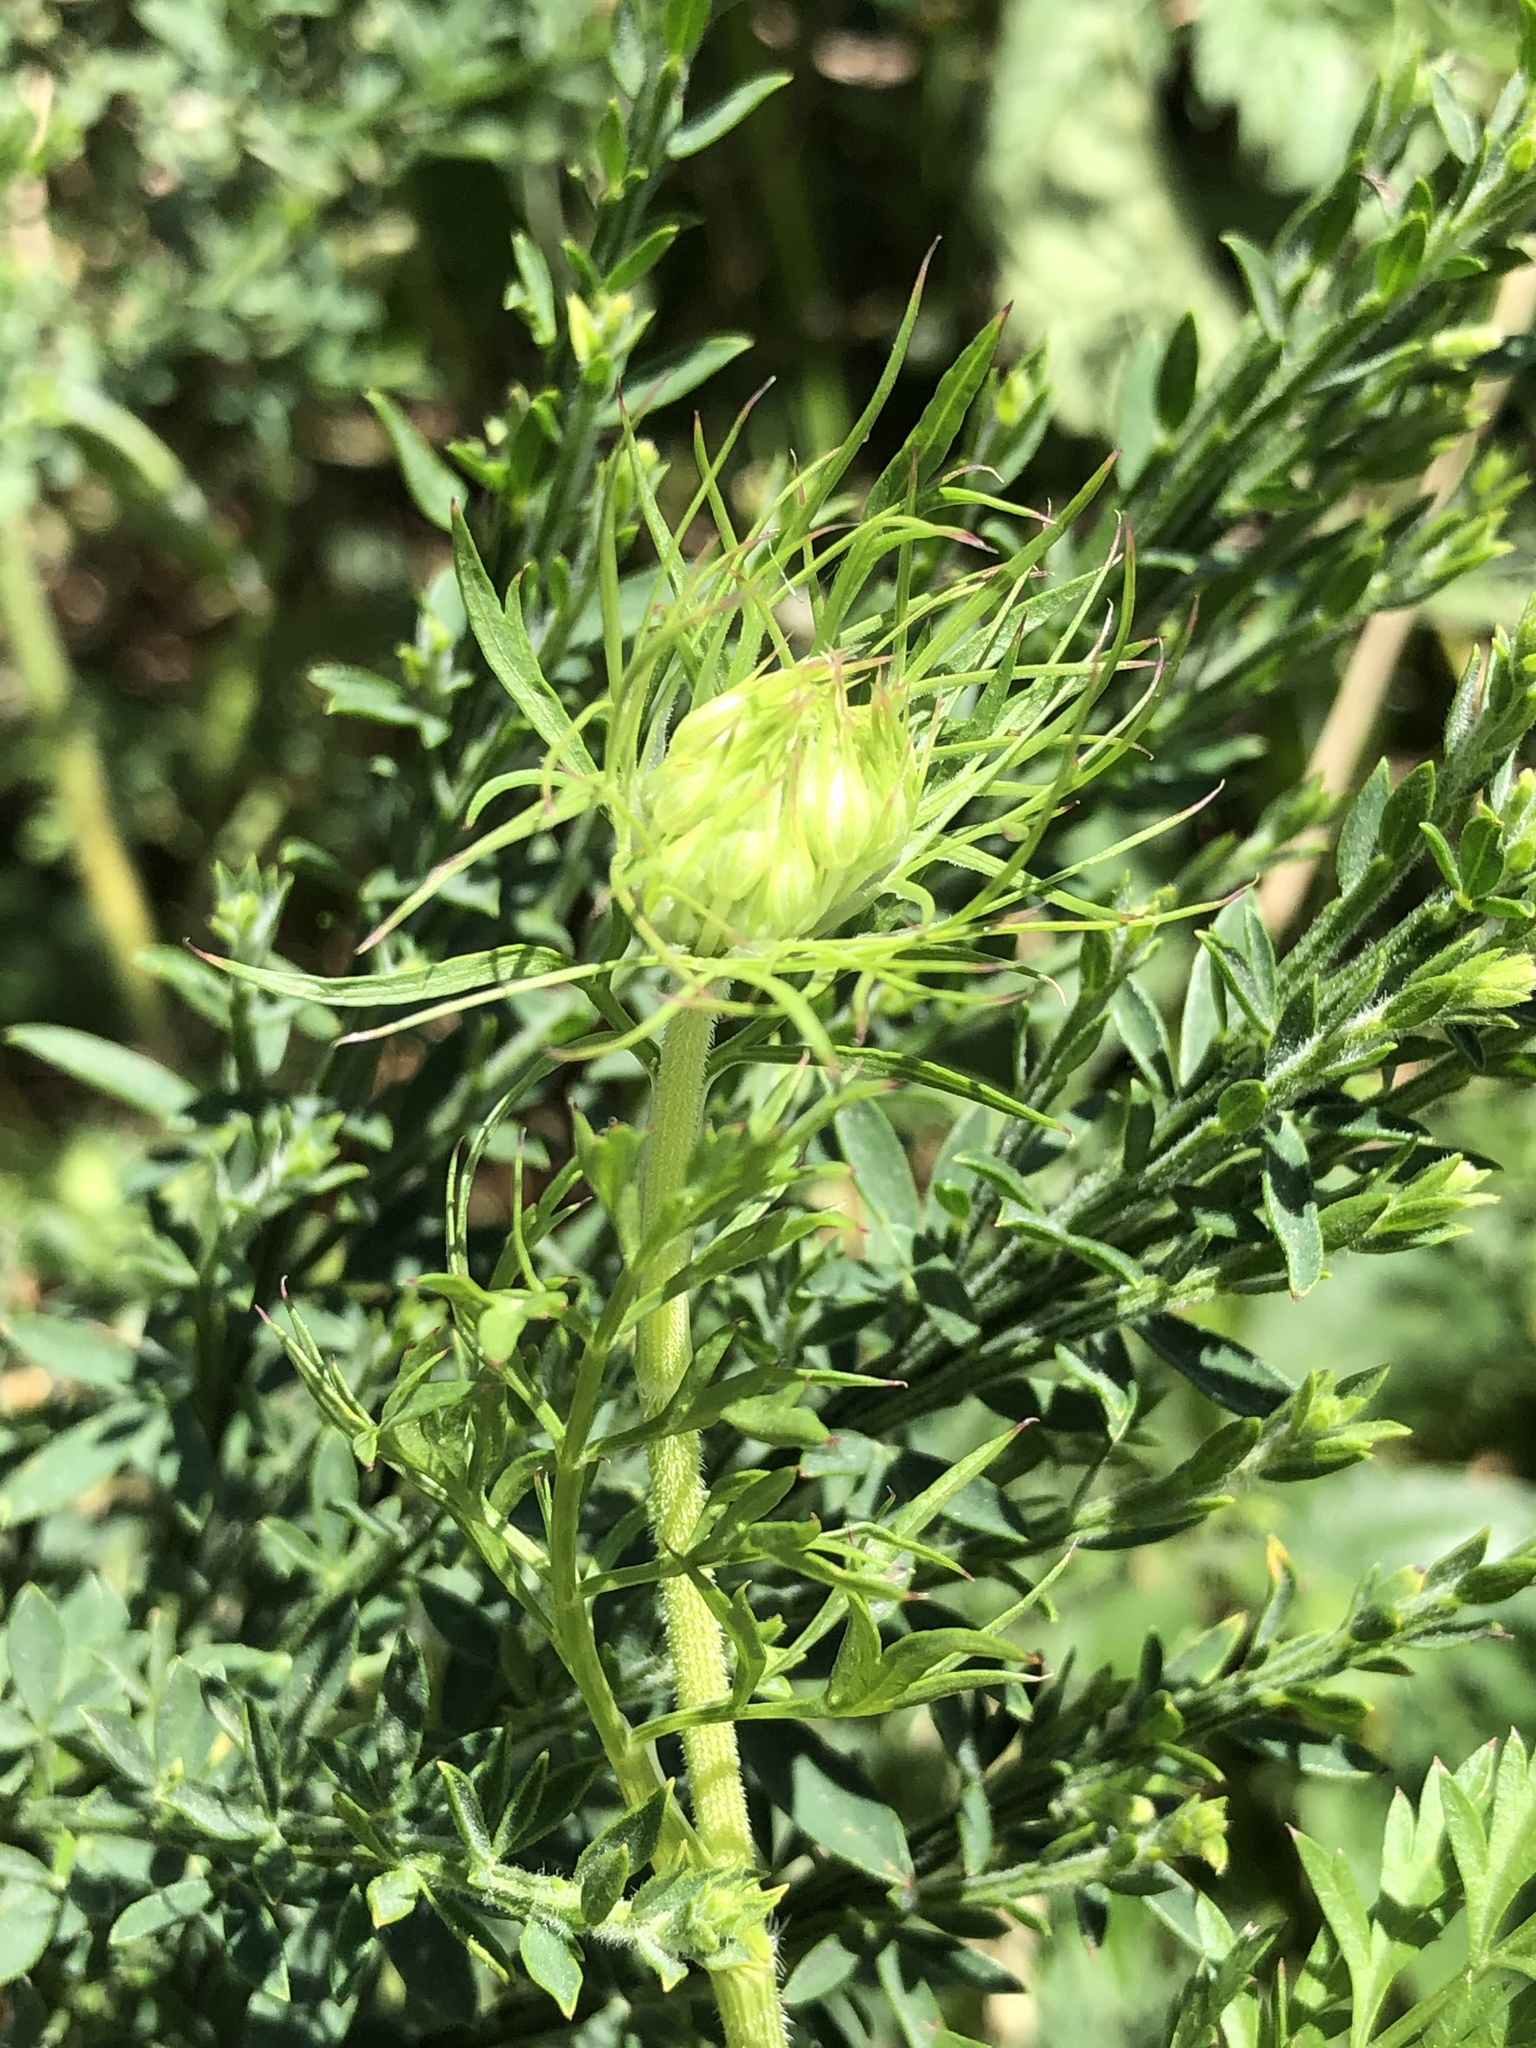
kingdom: Plantae
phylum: Tracheophyta
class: Magnoliopsida
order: Apiales
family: Apiaceae
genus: Daucus
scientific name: Daucus carota
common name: Wild carrot
